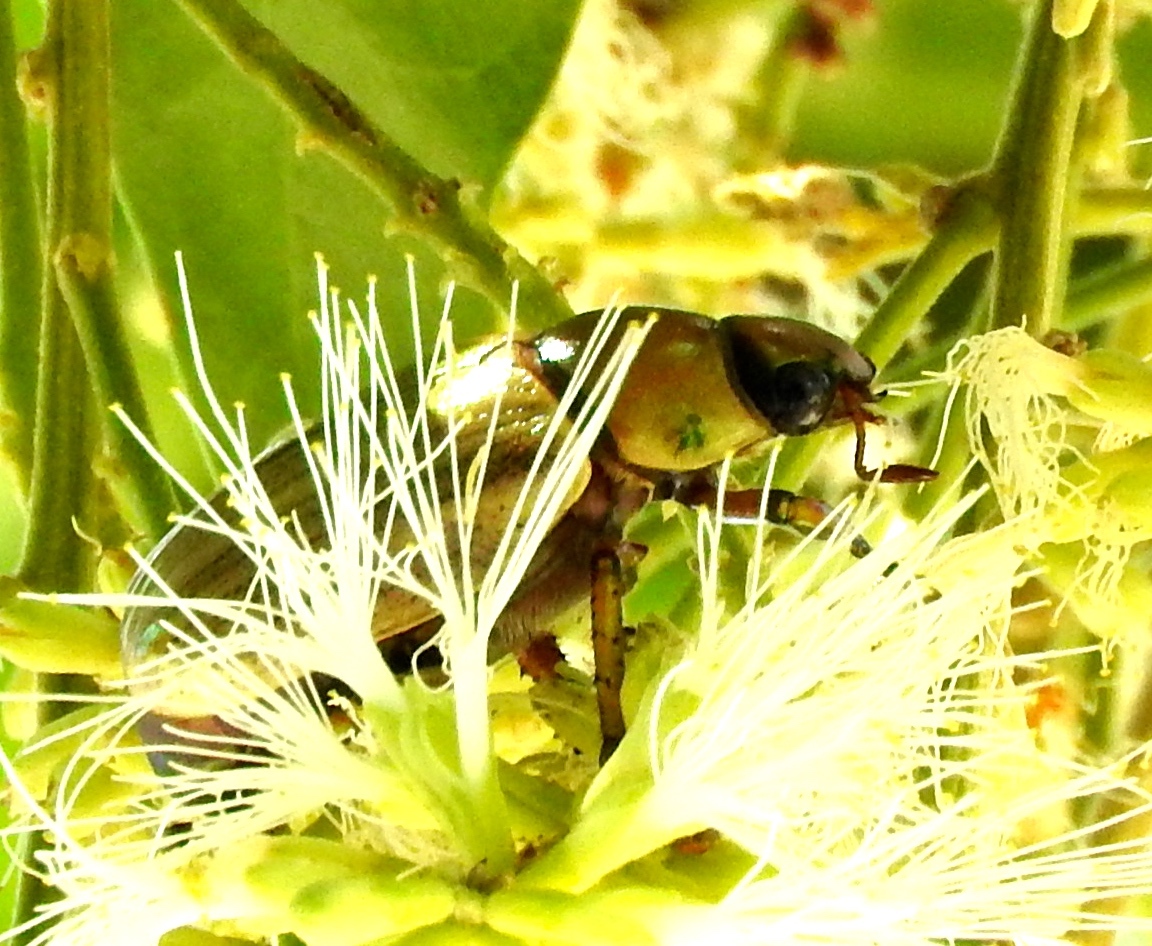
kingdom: Animalia
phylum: Arthropoda
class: Insecta
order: Coleoptera
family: Scarabaeidae
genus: Pelidnota
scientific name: Pelidnota virescens
